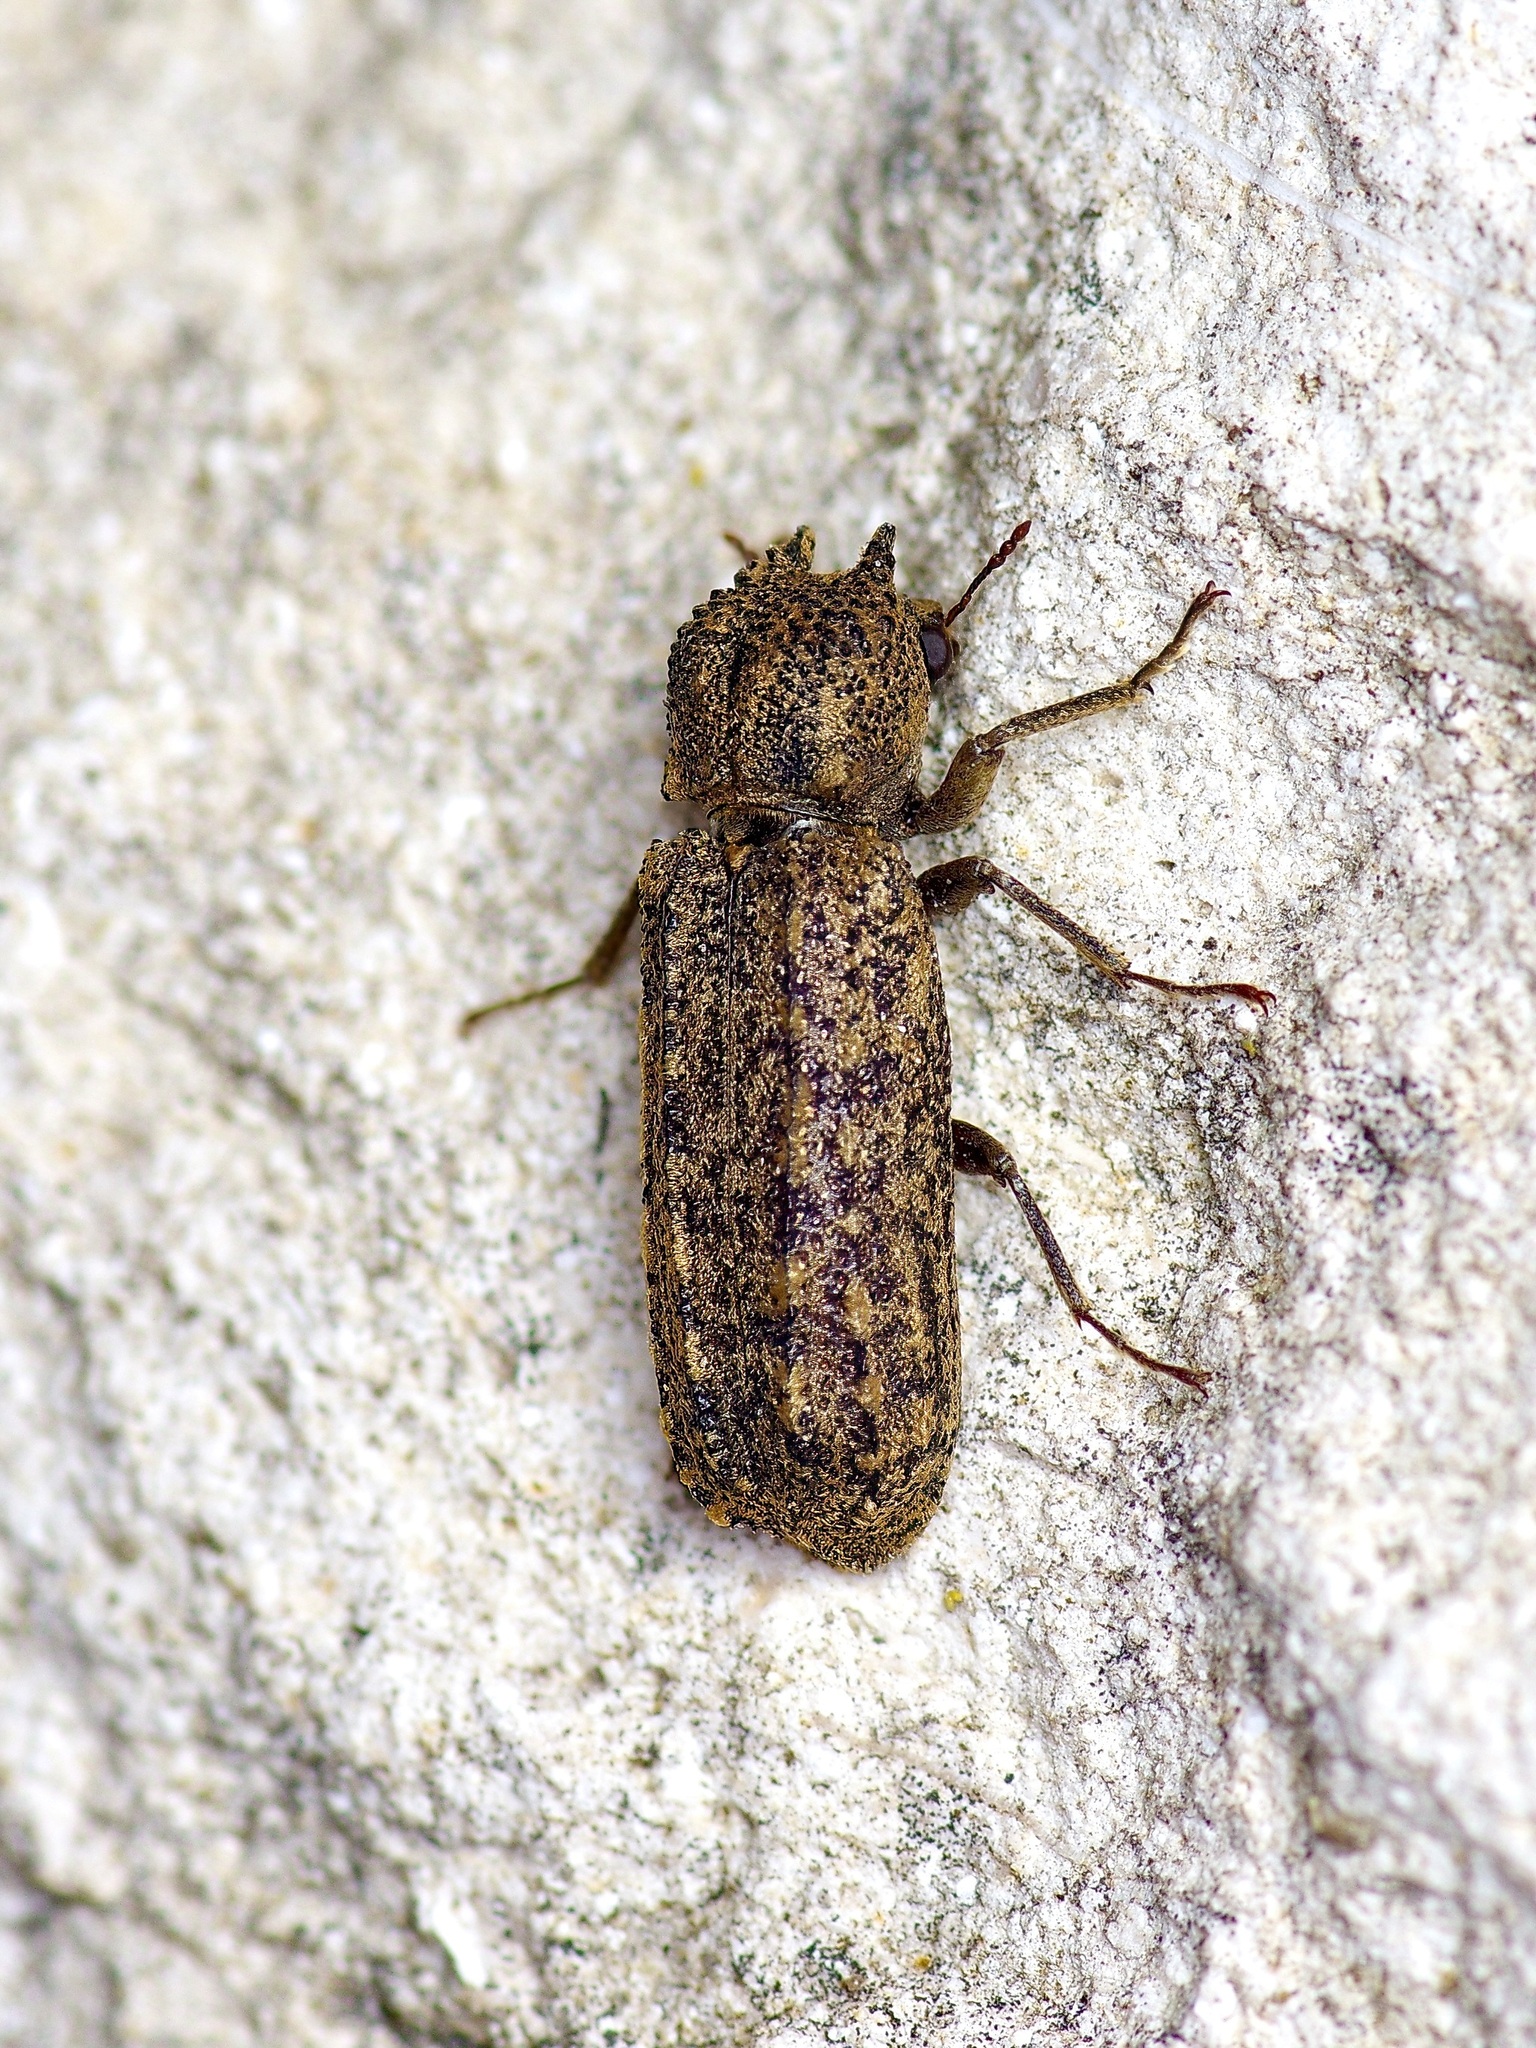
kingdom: Animalia
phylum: Arthropoda
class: Insecta
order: Coleoptera
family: Bostrichidae
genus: Lichenophanes
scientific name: Lichenophanes bicornis
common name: Two-horned powder-post beetle
